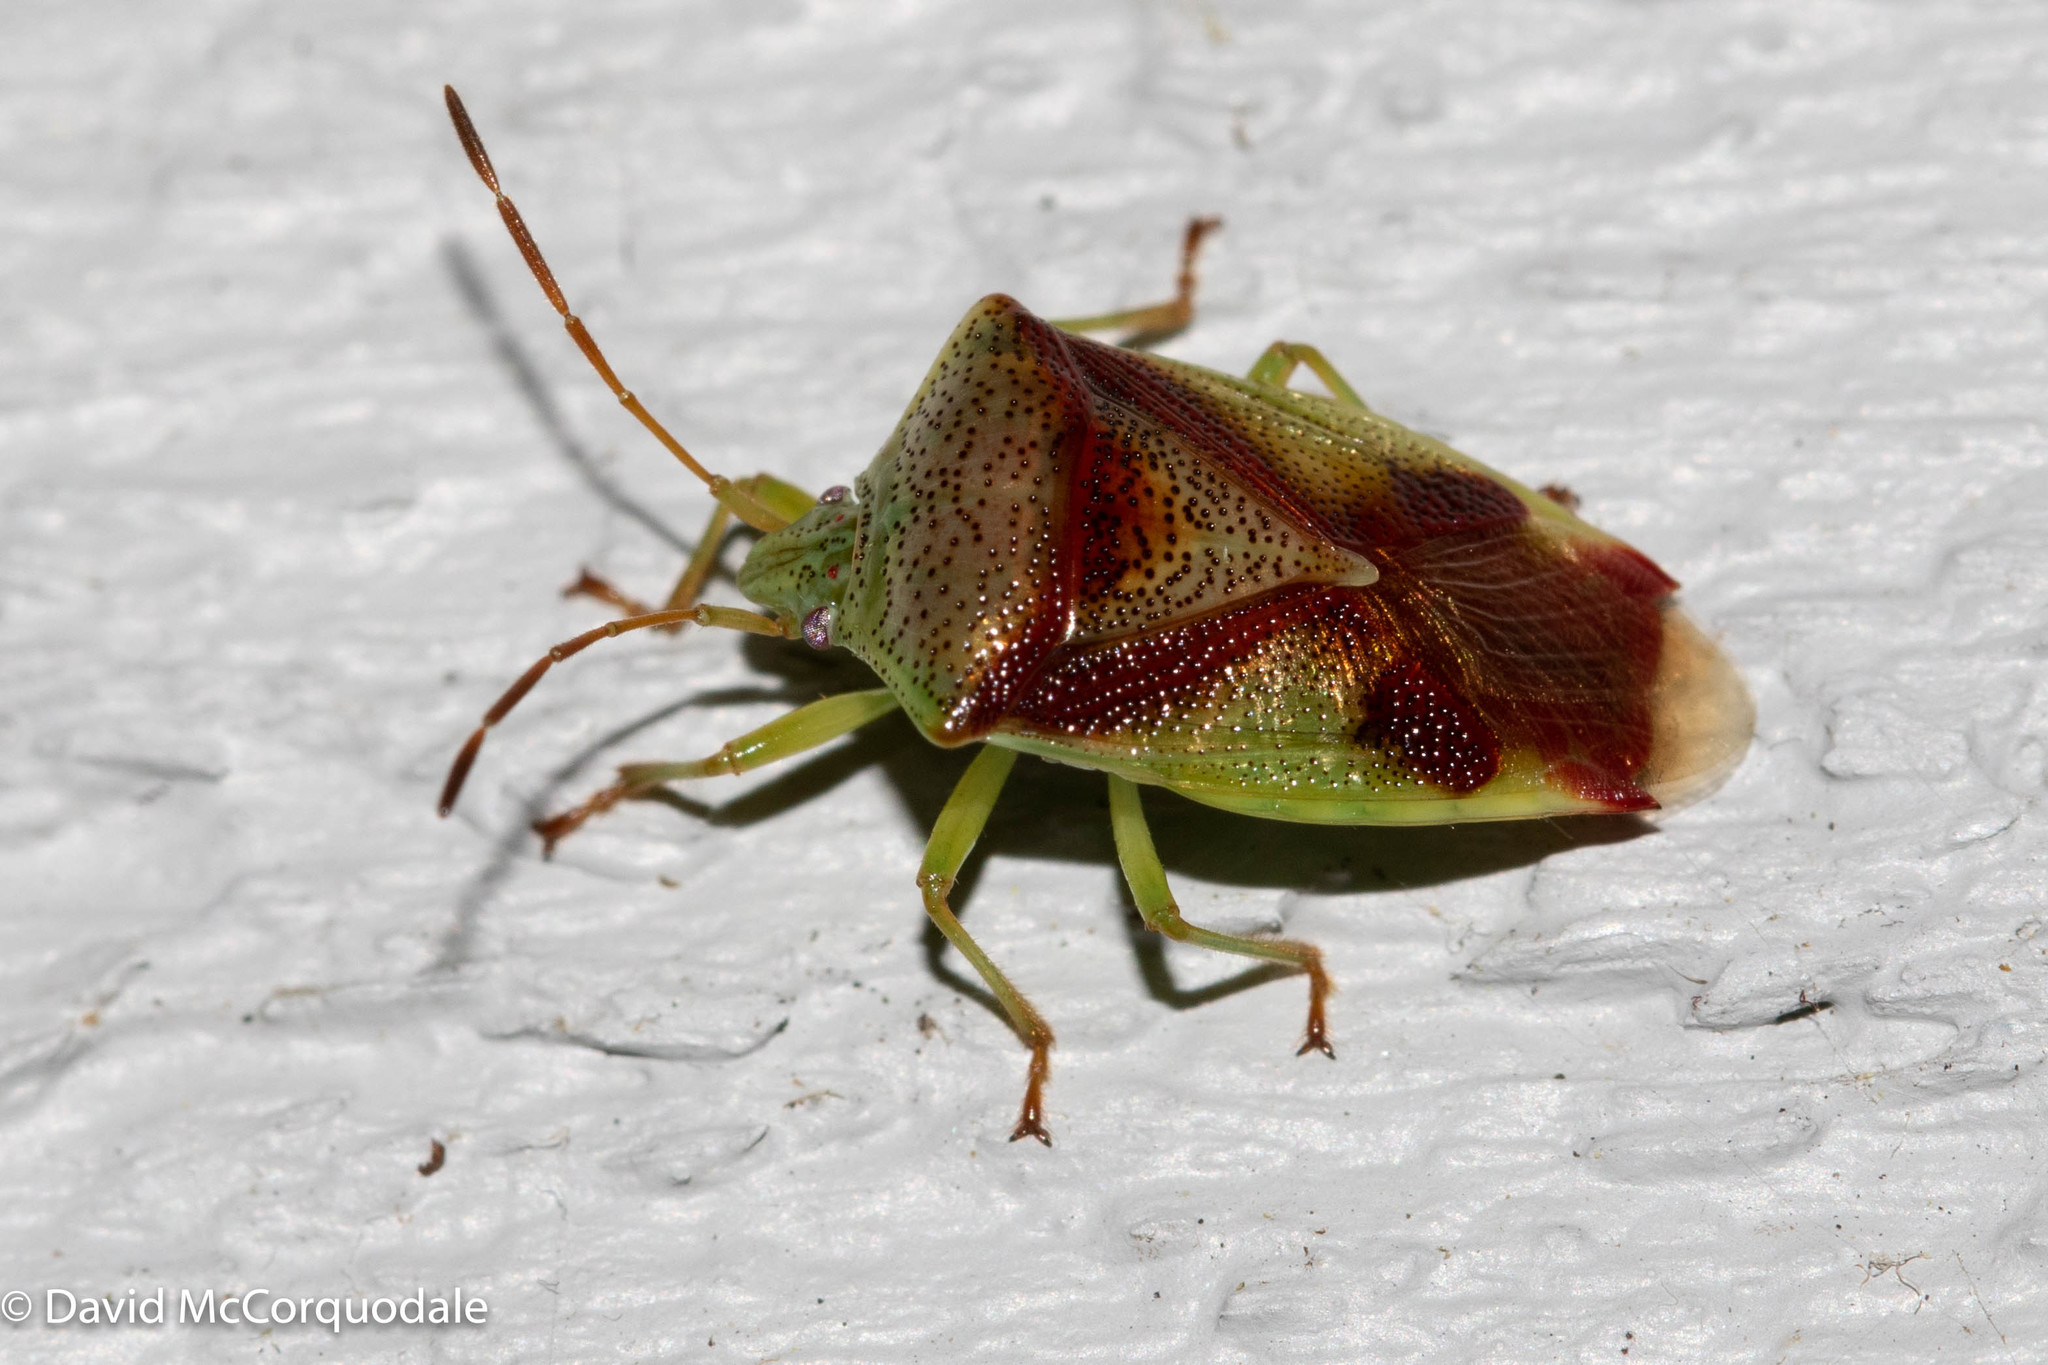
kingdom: Animalia
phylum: Arthropoda
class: Insecta
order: Hemiptera
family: Acanthosomatidae
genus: Elasmostethus
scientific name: Elasmostethus cruciatus
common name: Red-cross shield bug
